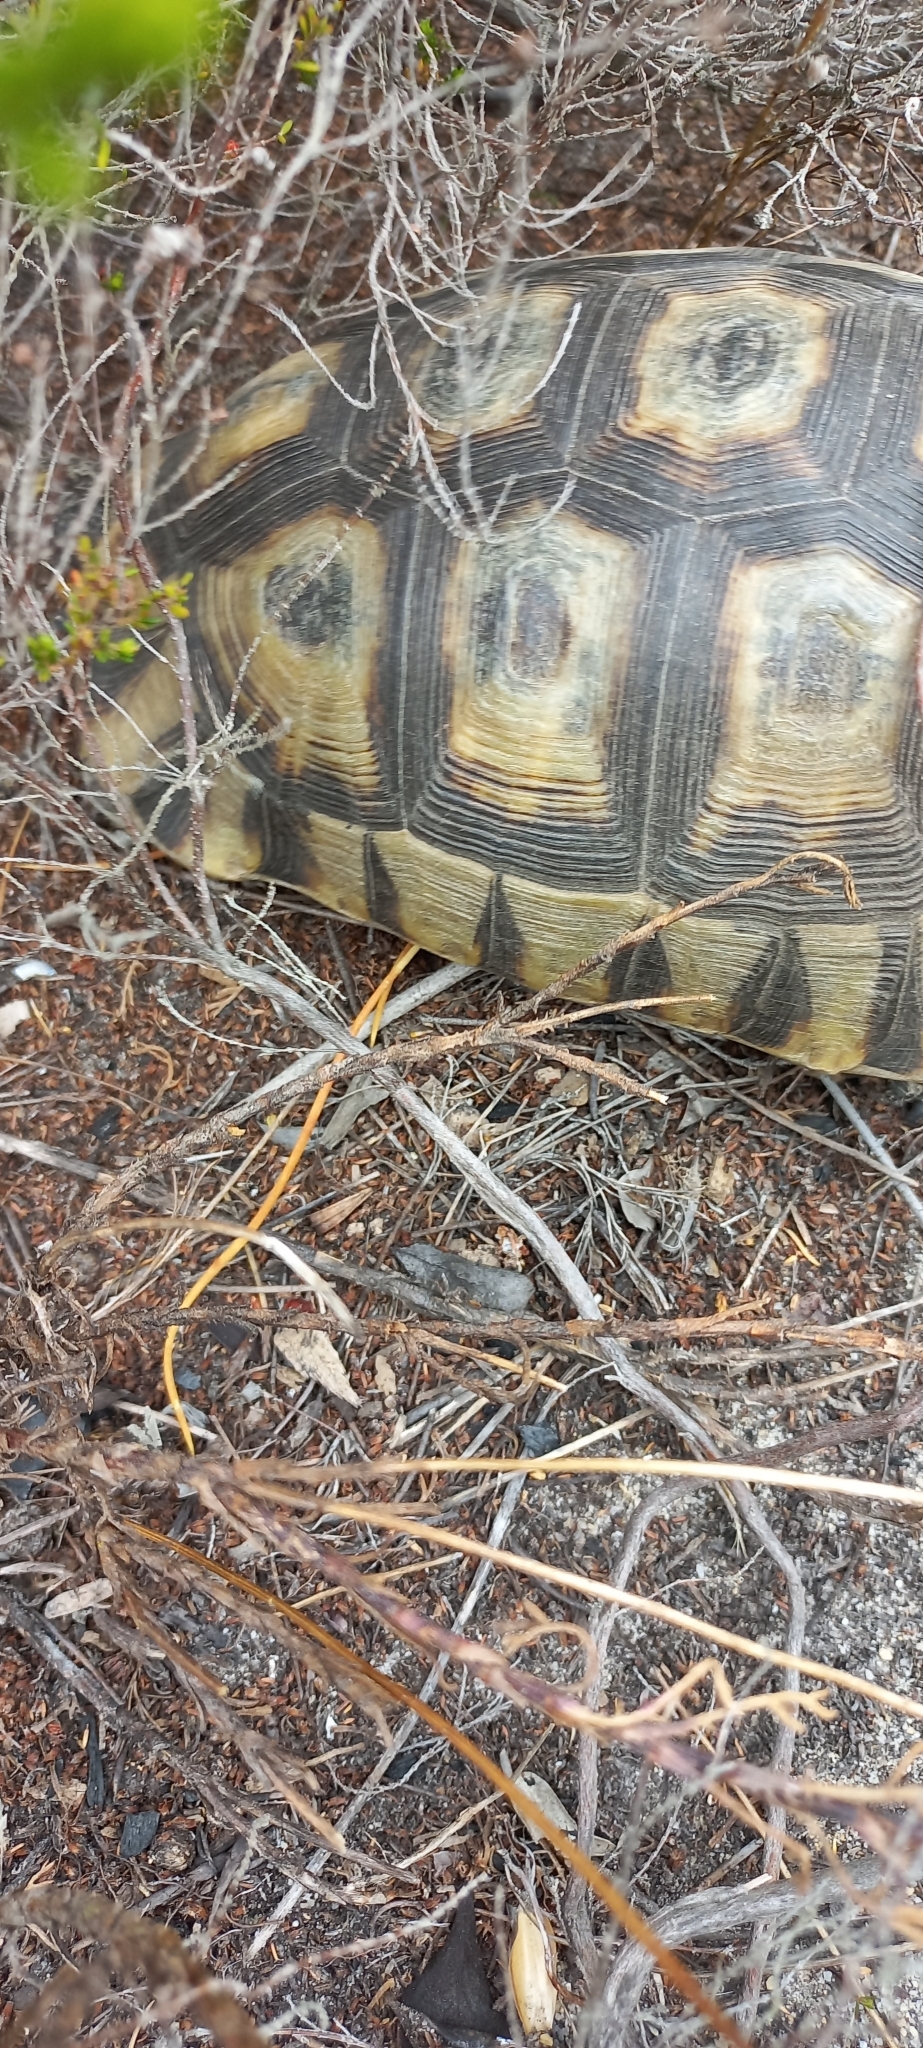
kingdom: Animalia
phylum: Chordata
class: Testudines
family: Testudinidae
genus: Chersina
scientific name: Chersina angulata
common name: South african bowsprit tortoise
